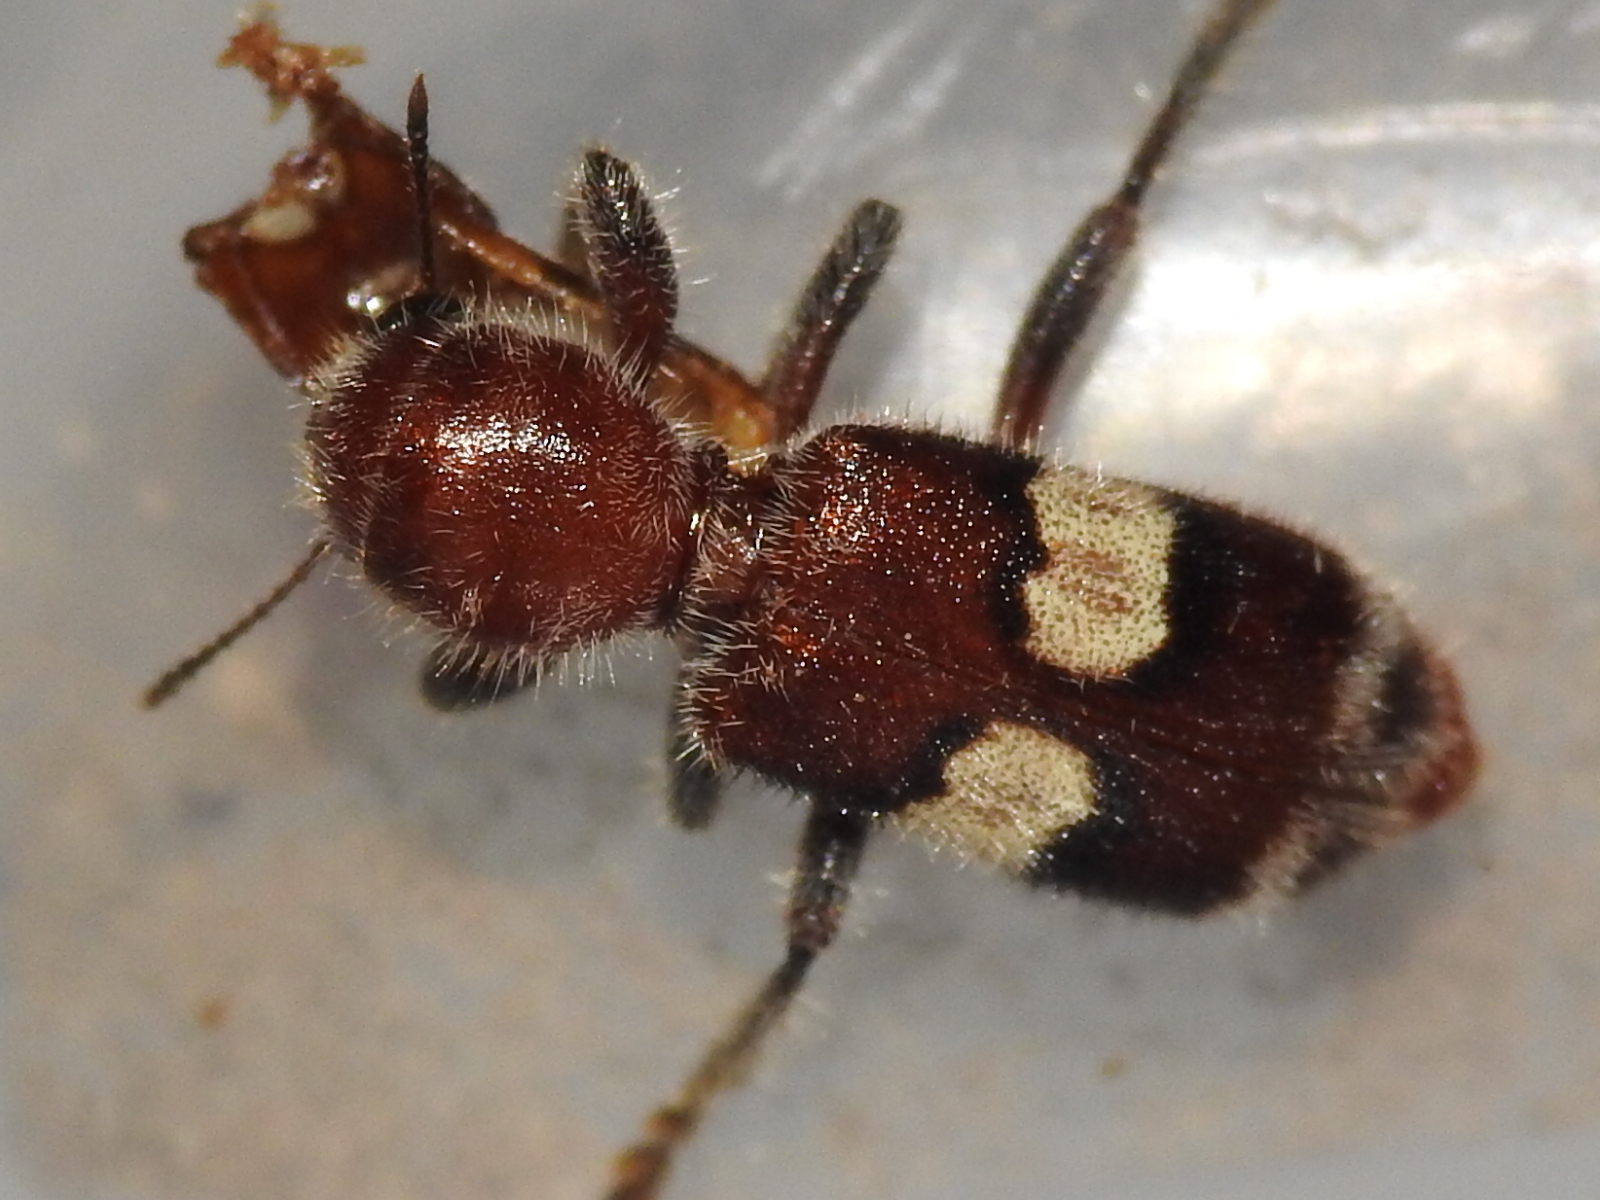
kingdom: Animalia
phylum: Arthropoda
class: Insecta
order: Coleoptera
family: Cleridae
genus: Enoclerus
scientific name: Enoclerus quadrisignatus
